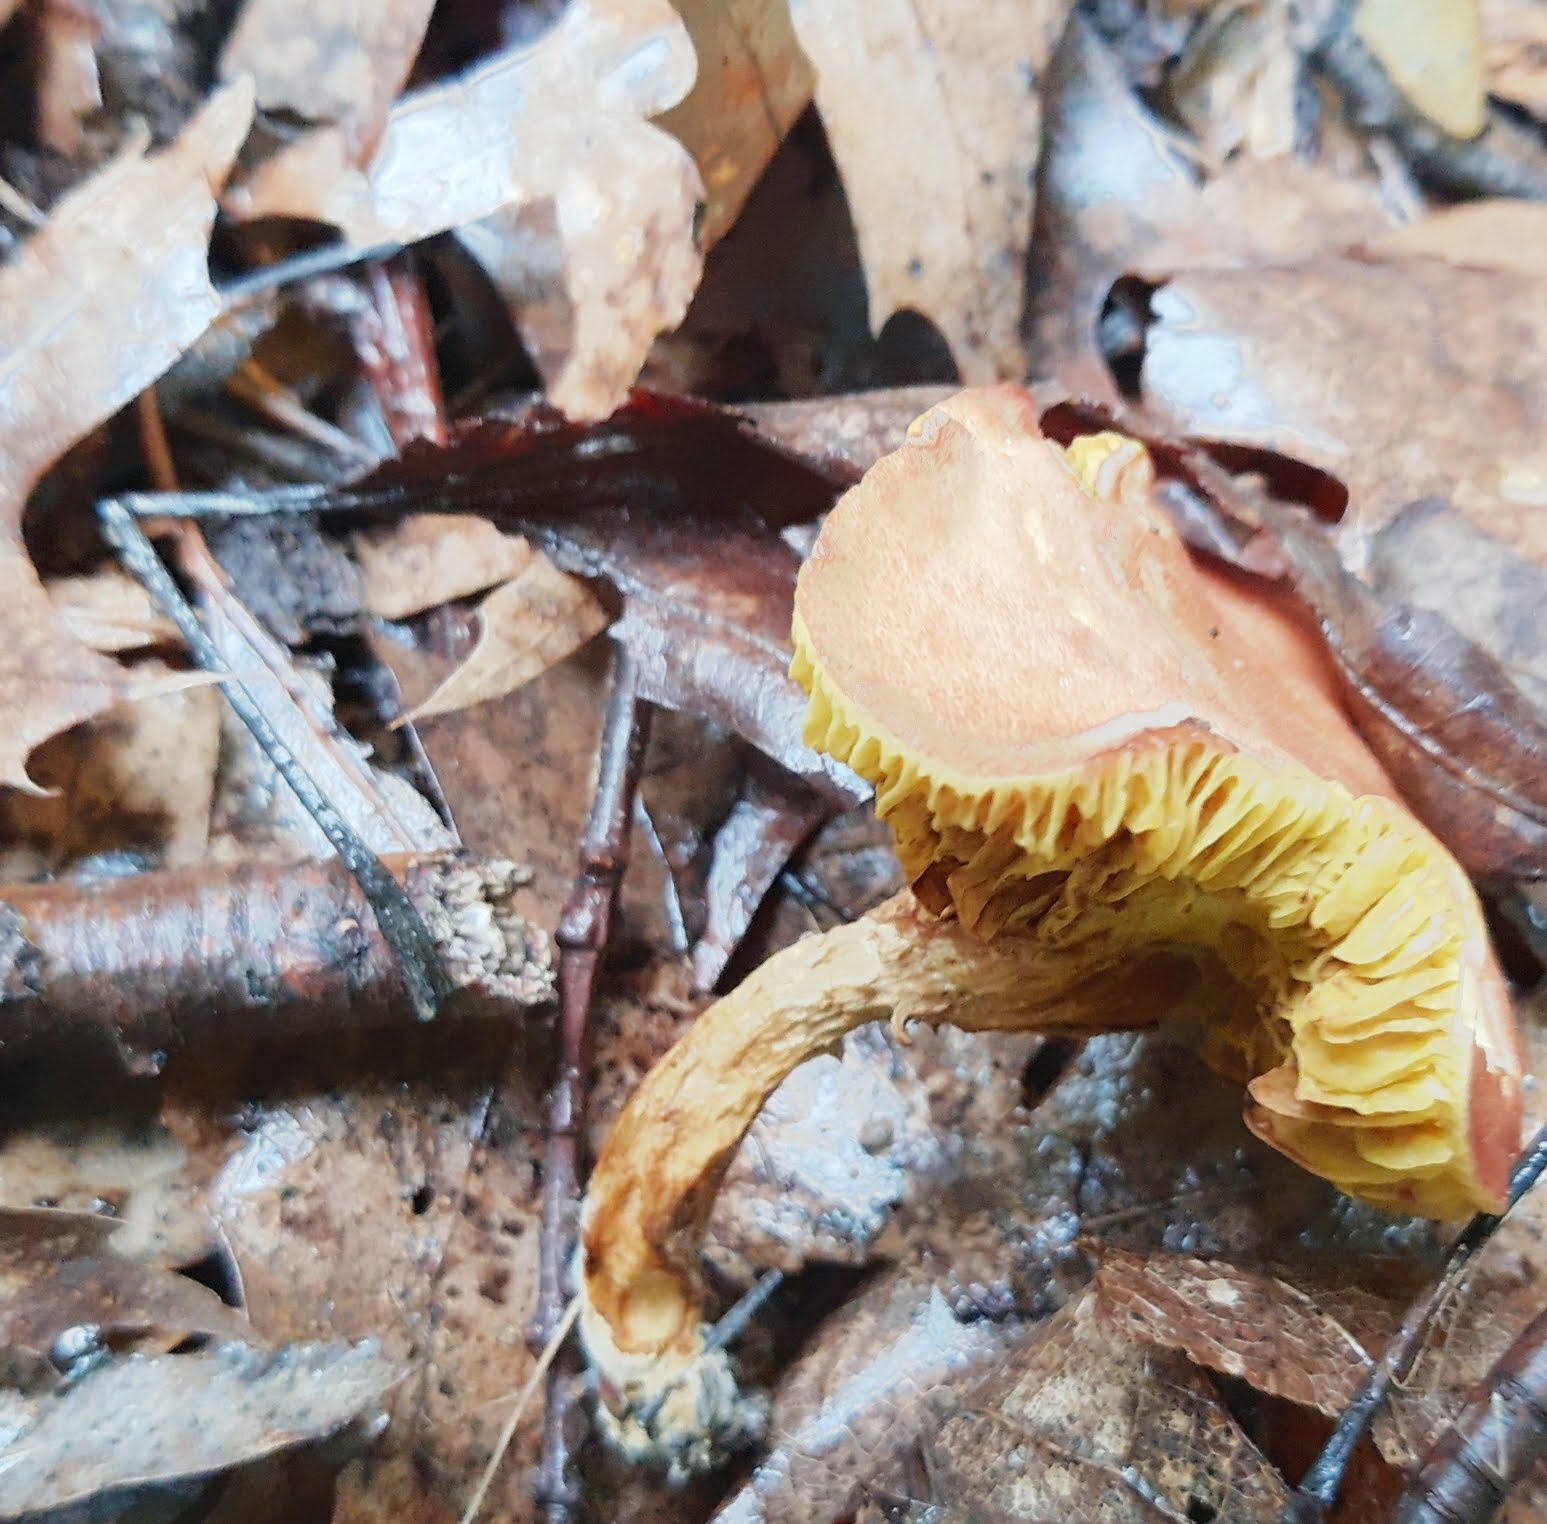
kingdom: Fungi
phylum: Basidiomycota
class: Agaricomycetes
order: Boletales
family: Boletaceae
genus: Phylloporus
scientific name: Phylloporus leucomycelinus
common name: Gilled bolete
